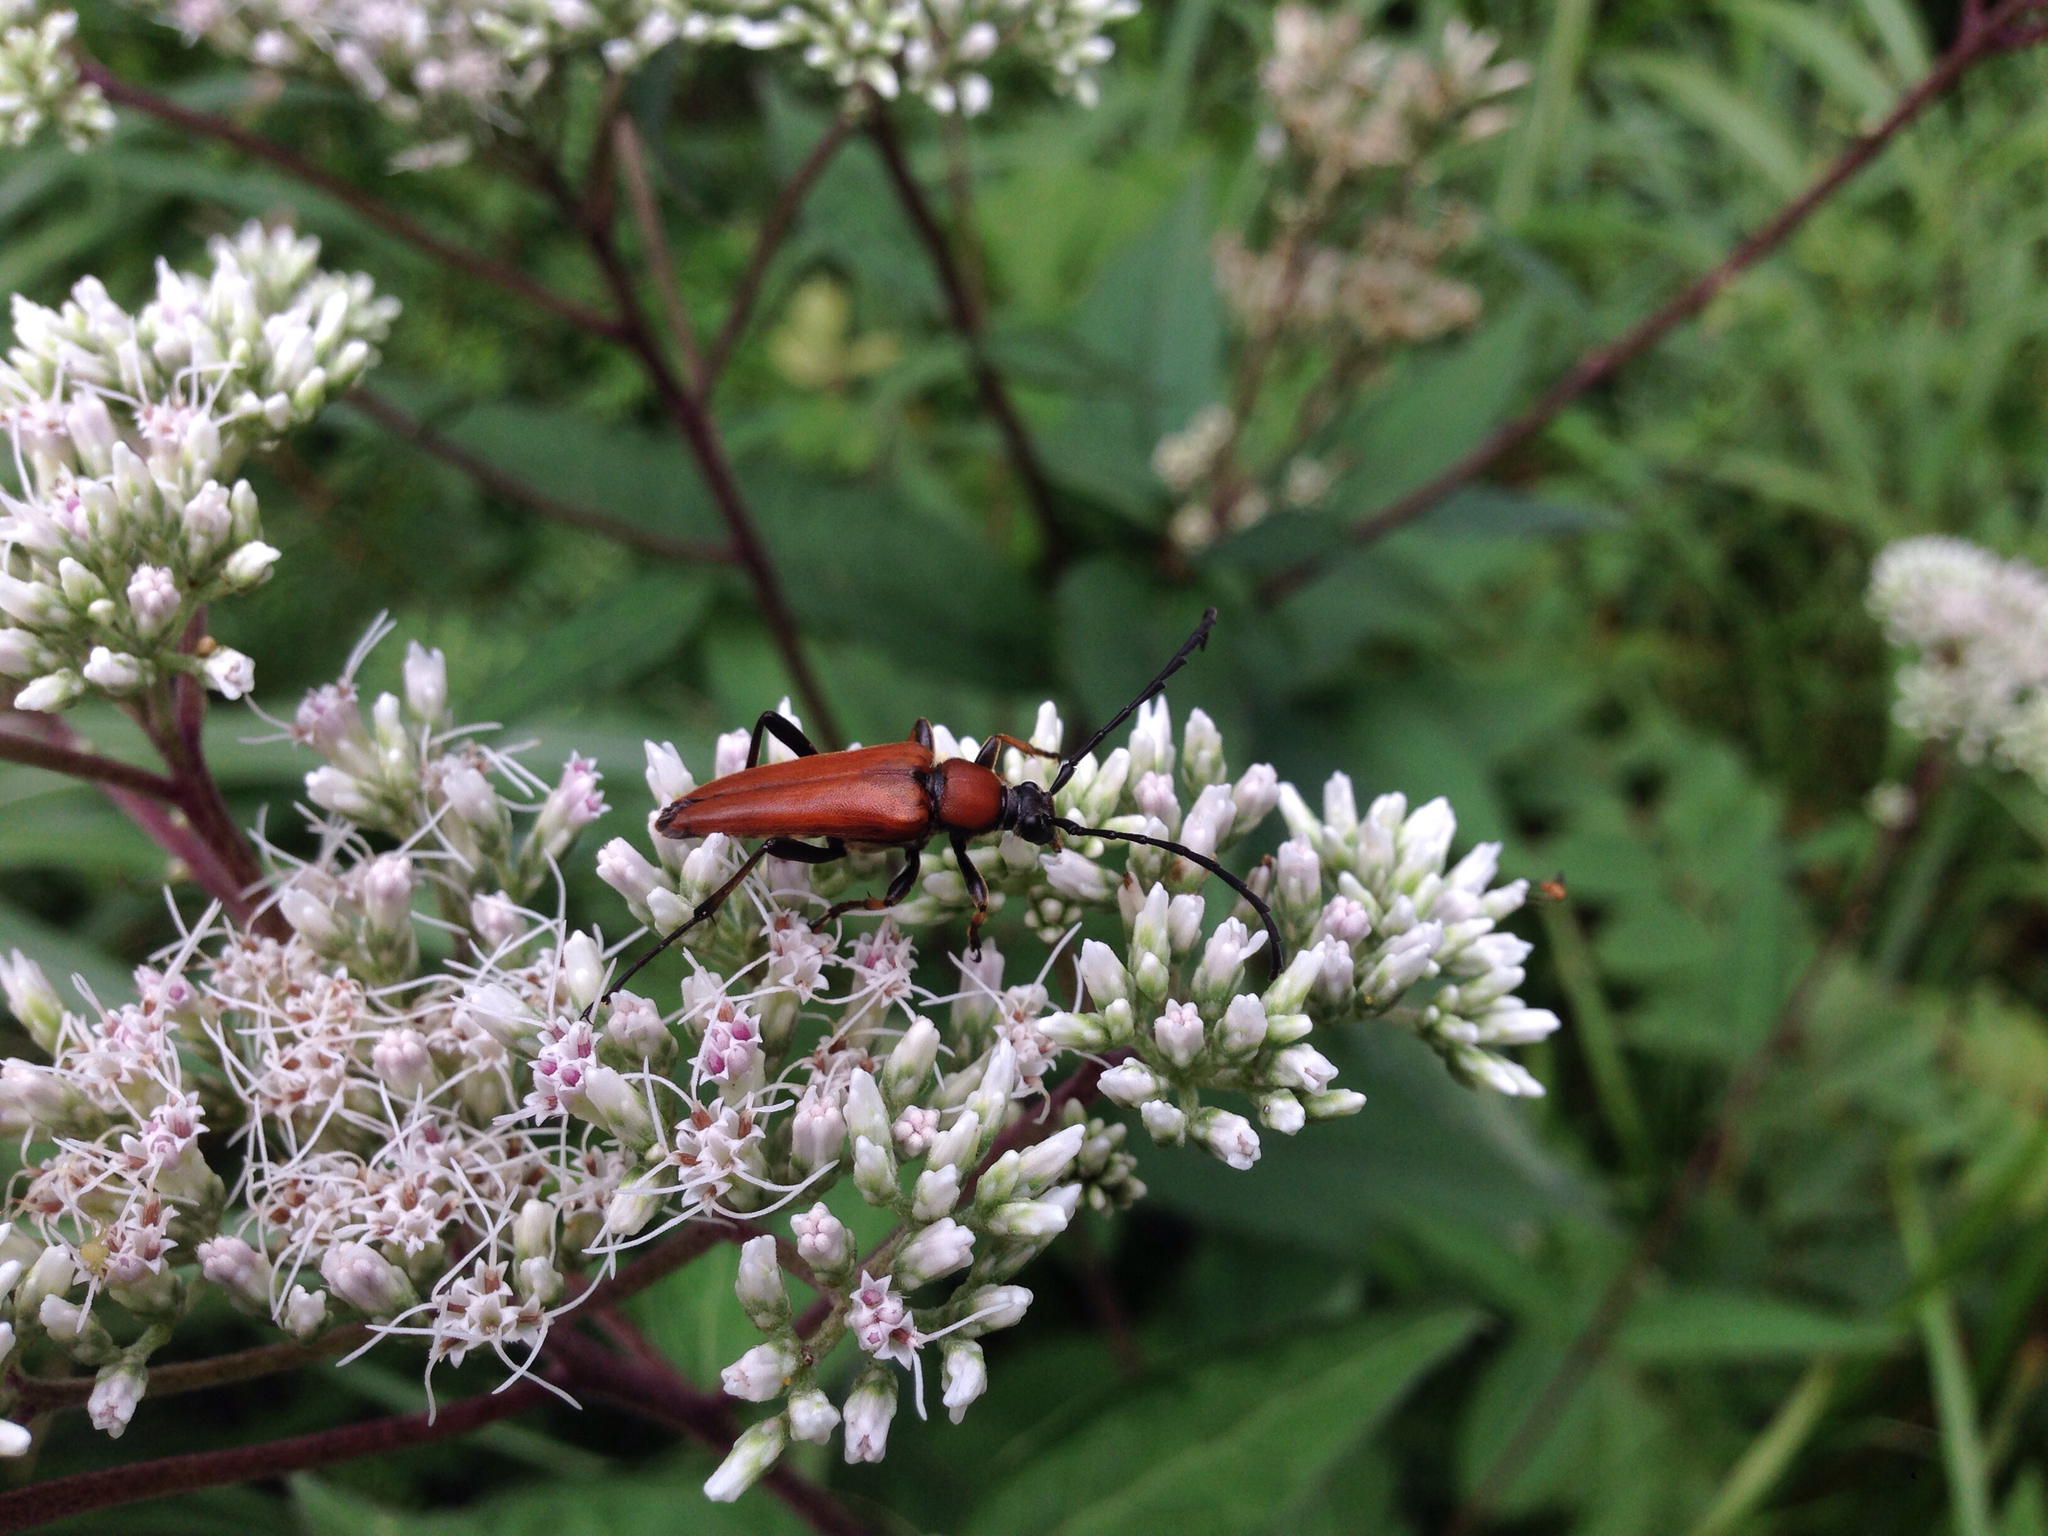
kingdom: Animalia
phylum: Arthropoda
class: Insecta
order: Coleoptera
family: Cerambycidae
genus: Stictoleptura
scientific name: Stictoleptura dichroa
